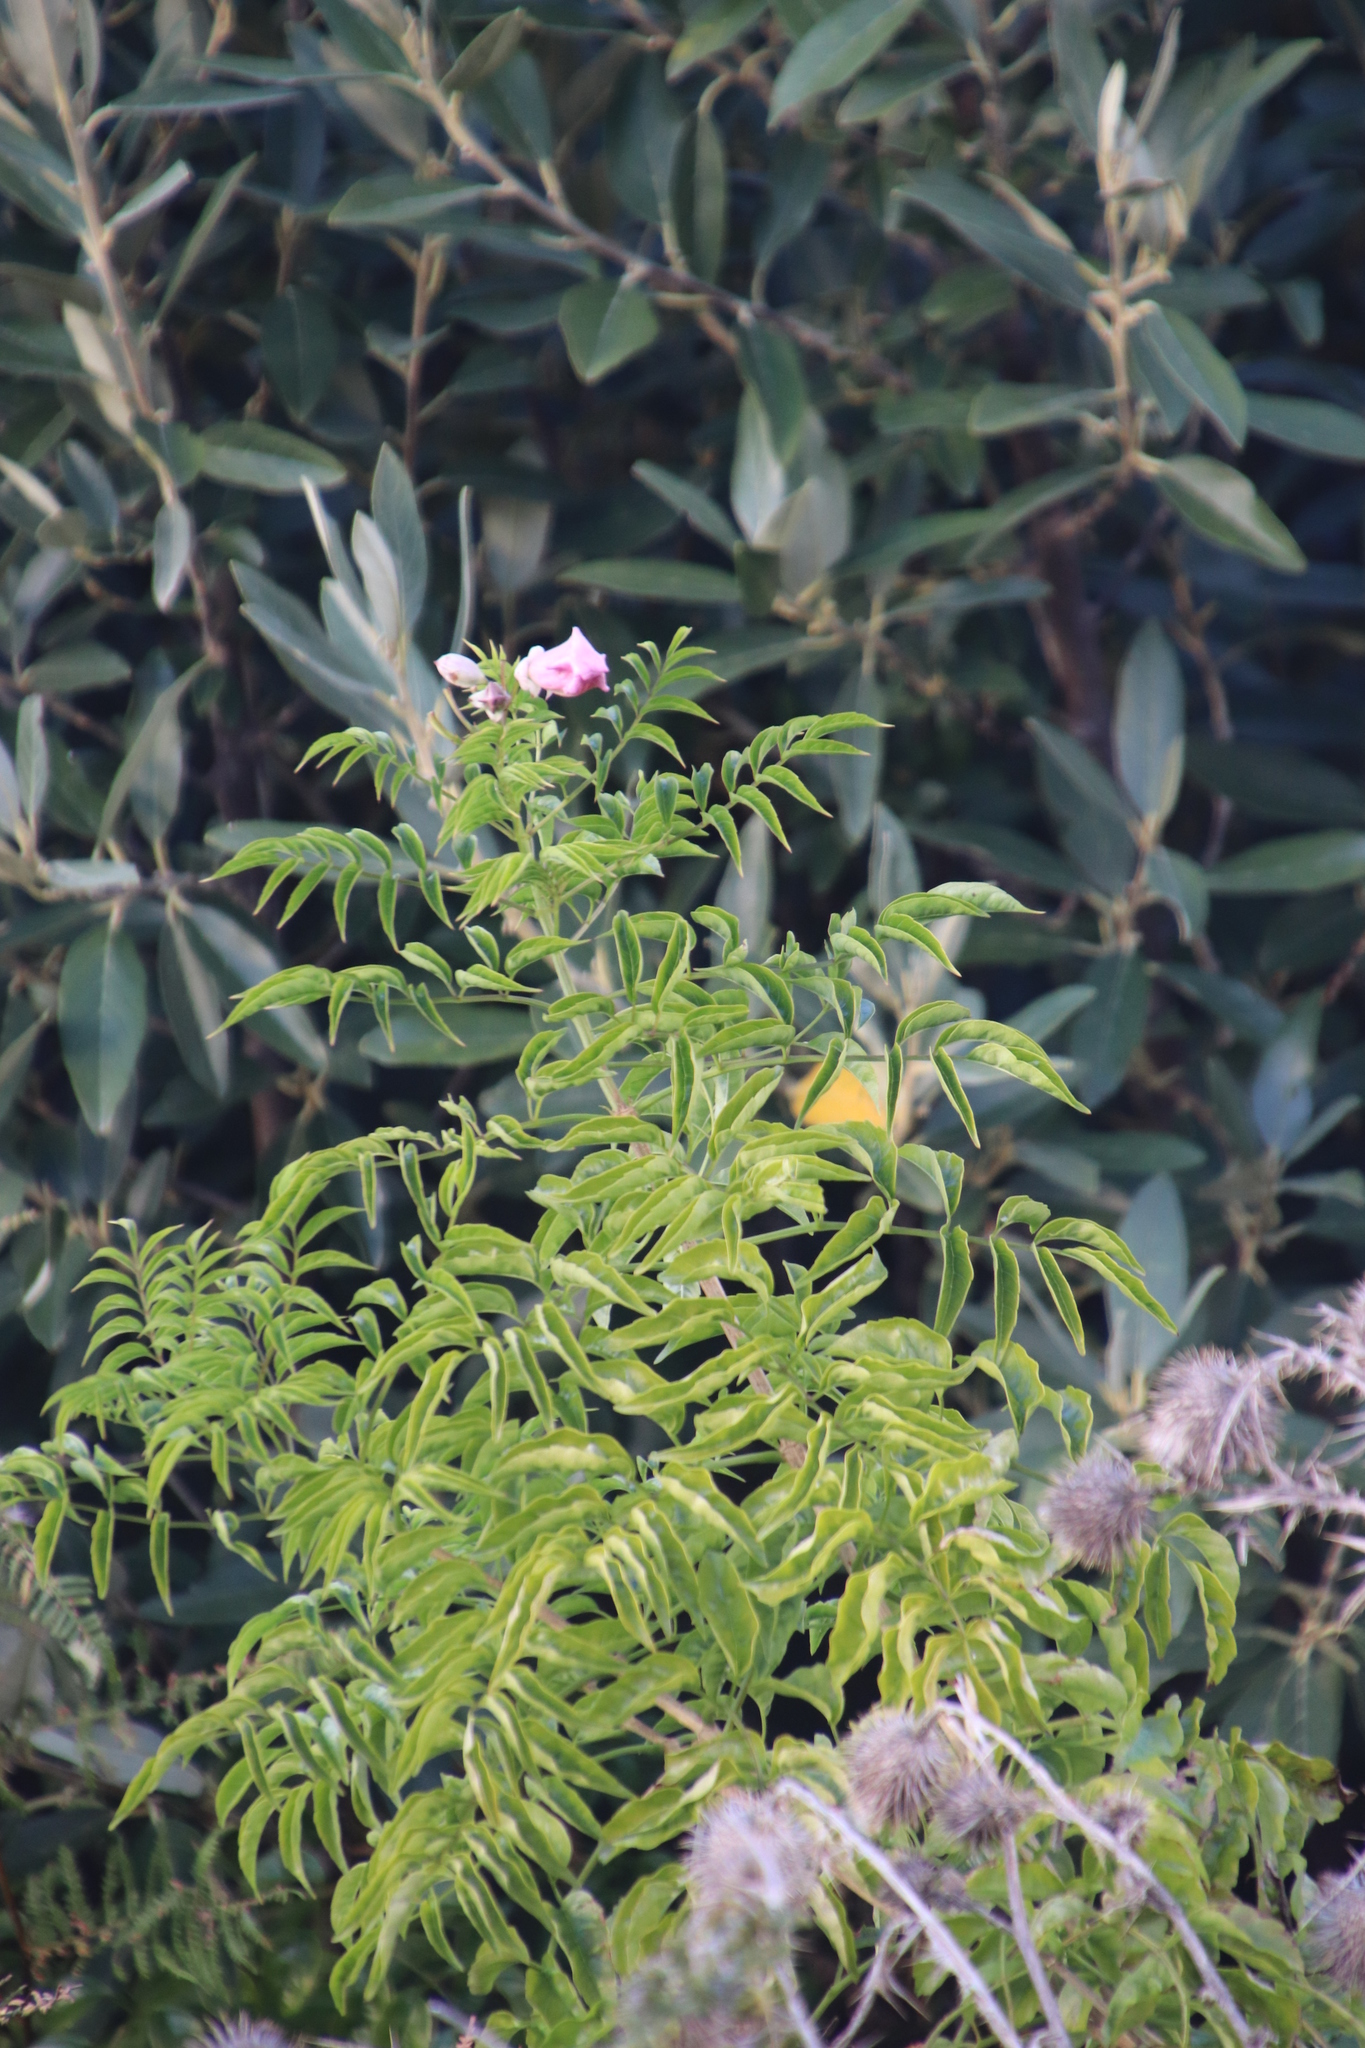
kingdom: Plantae
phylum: Tracheophyta
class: Magnoliopsida
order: Lamiales
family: Bignoniaceae
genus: Podranea
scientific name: Podranea ricasoliana
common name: Zimbabwe creeper
